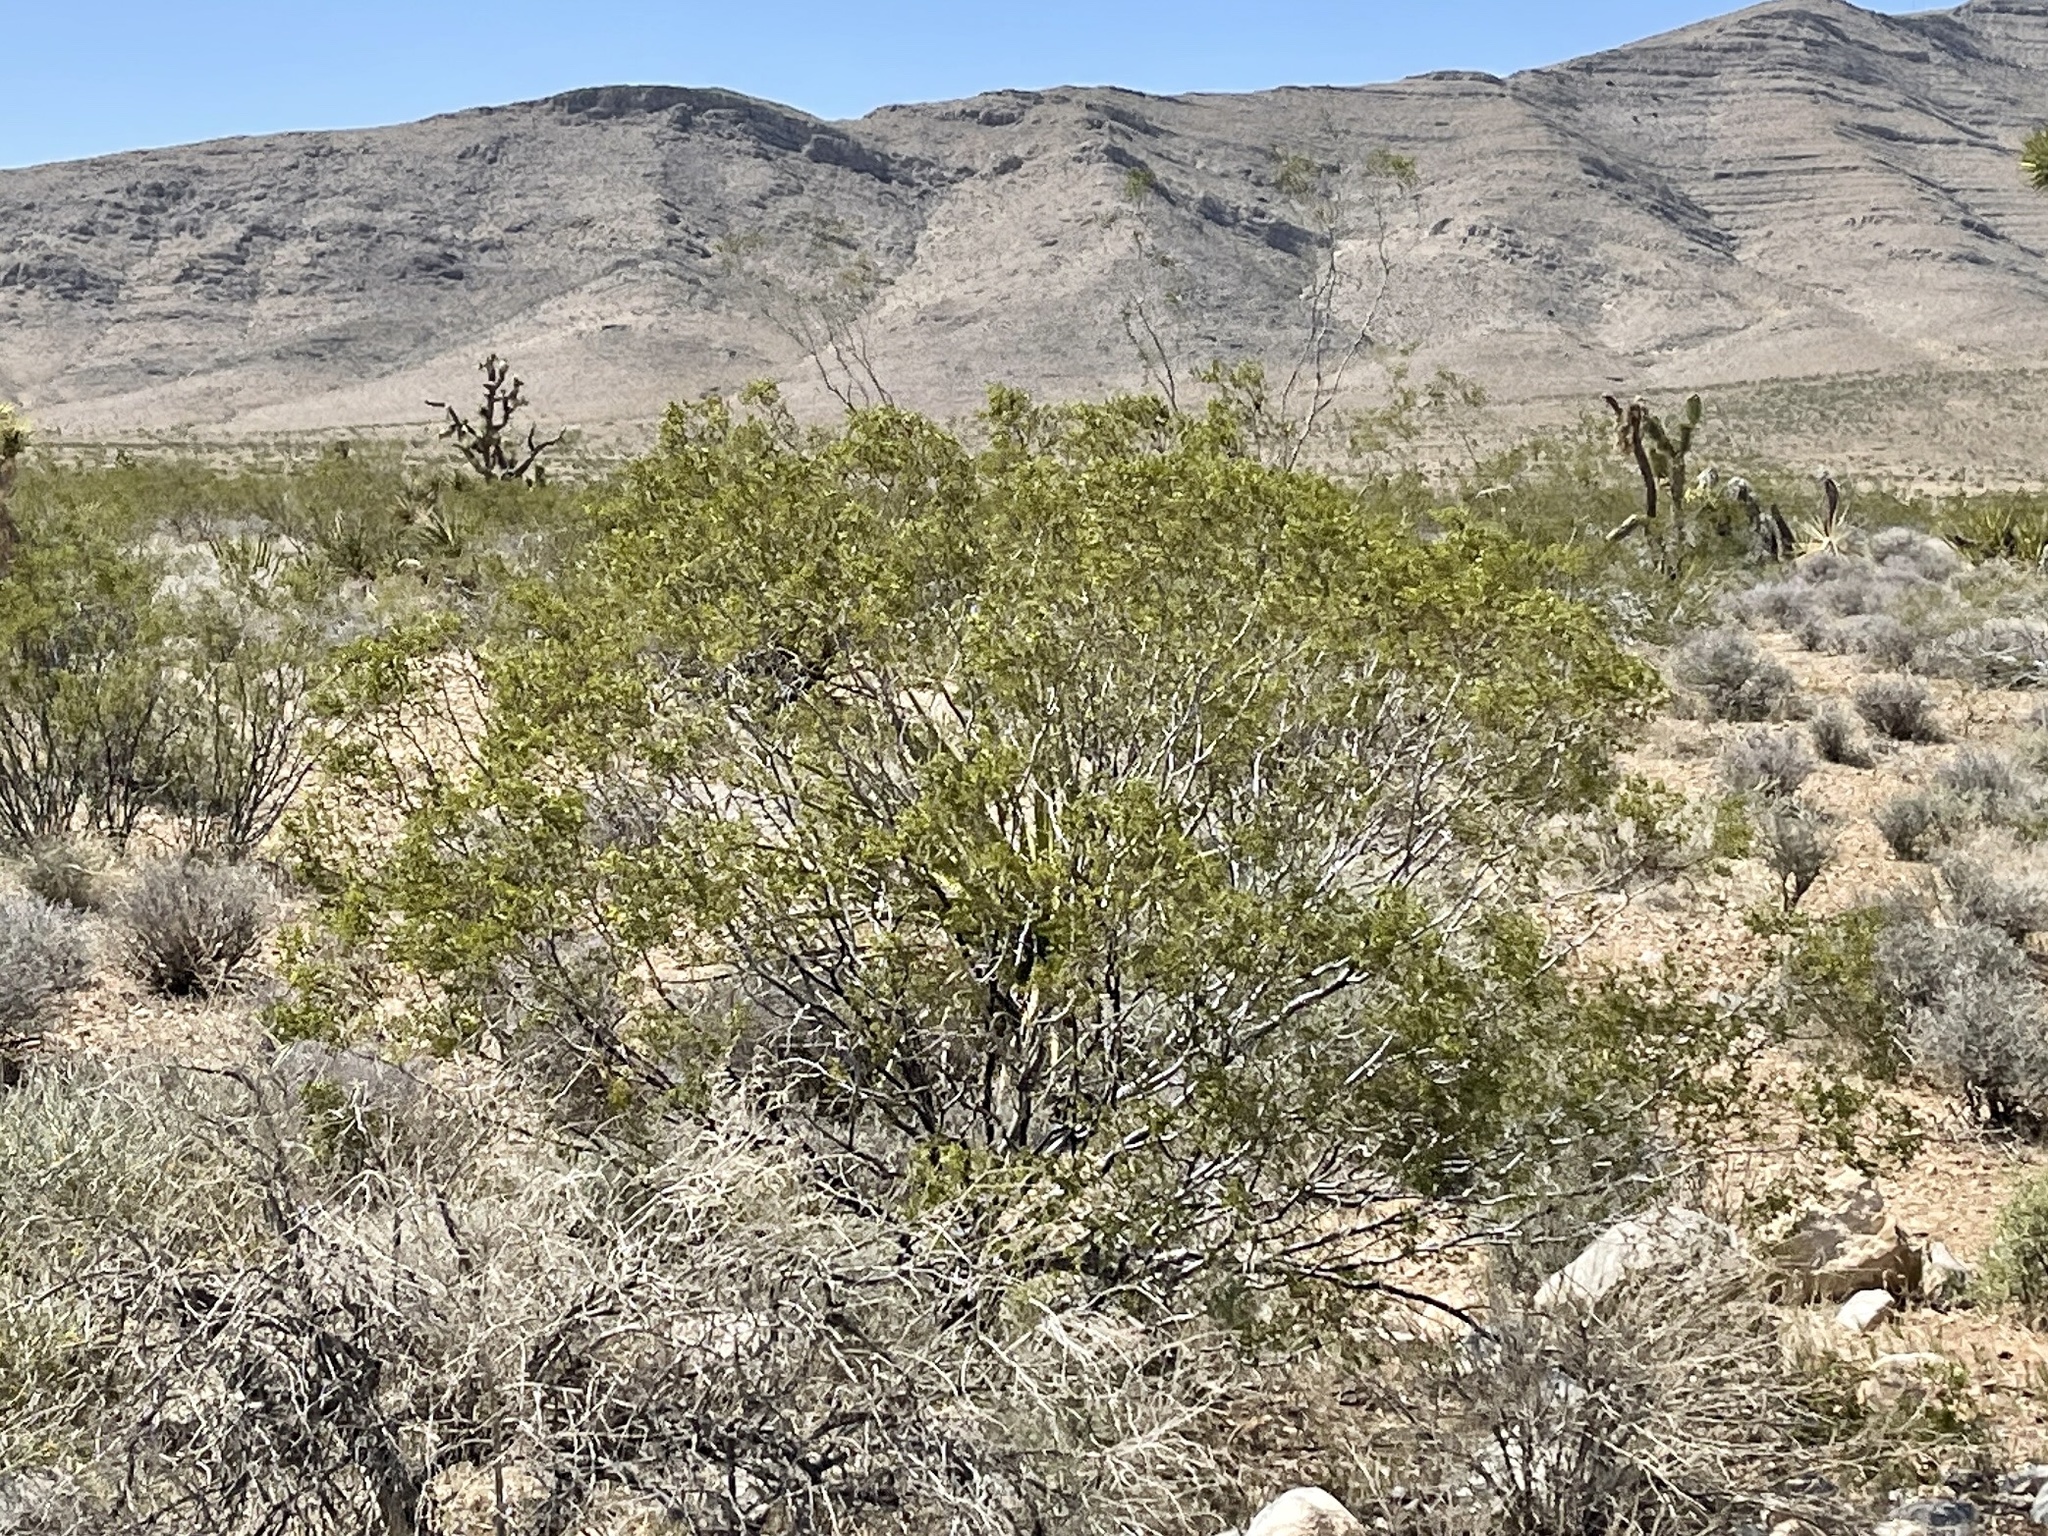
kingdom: Plantae
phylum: Tracheophyta
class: Magnoliopsida
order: Zygophyllales
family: Zygophyllaceae
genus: Larrea
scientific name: Larrea tridentata
